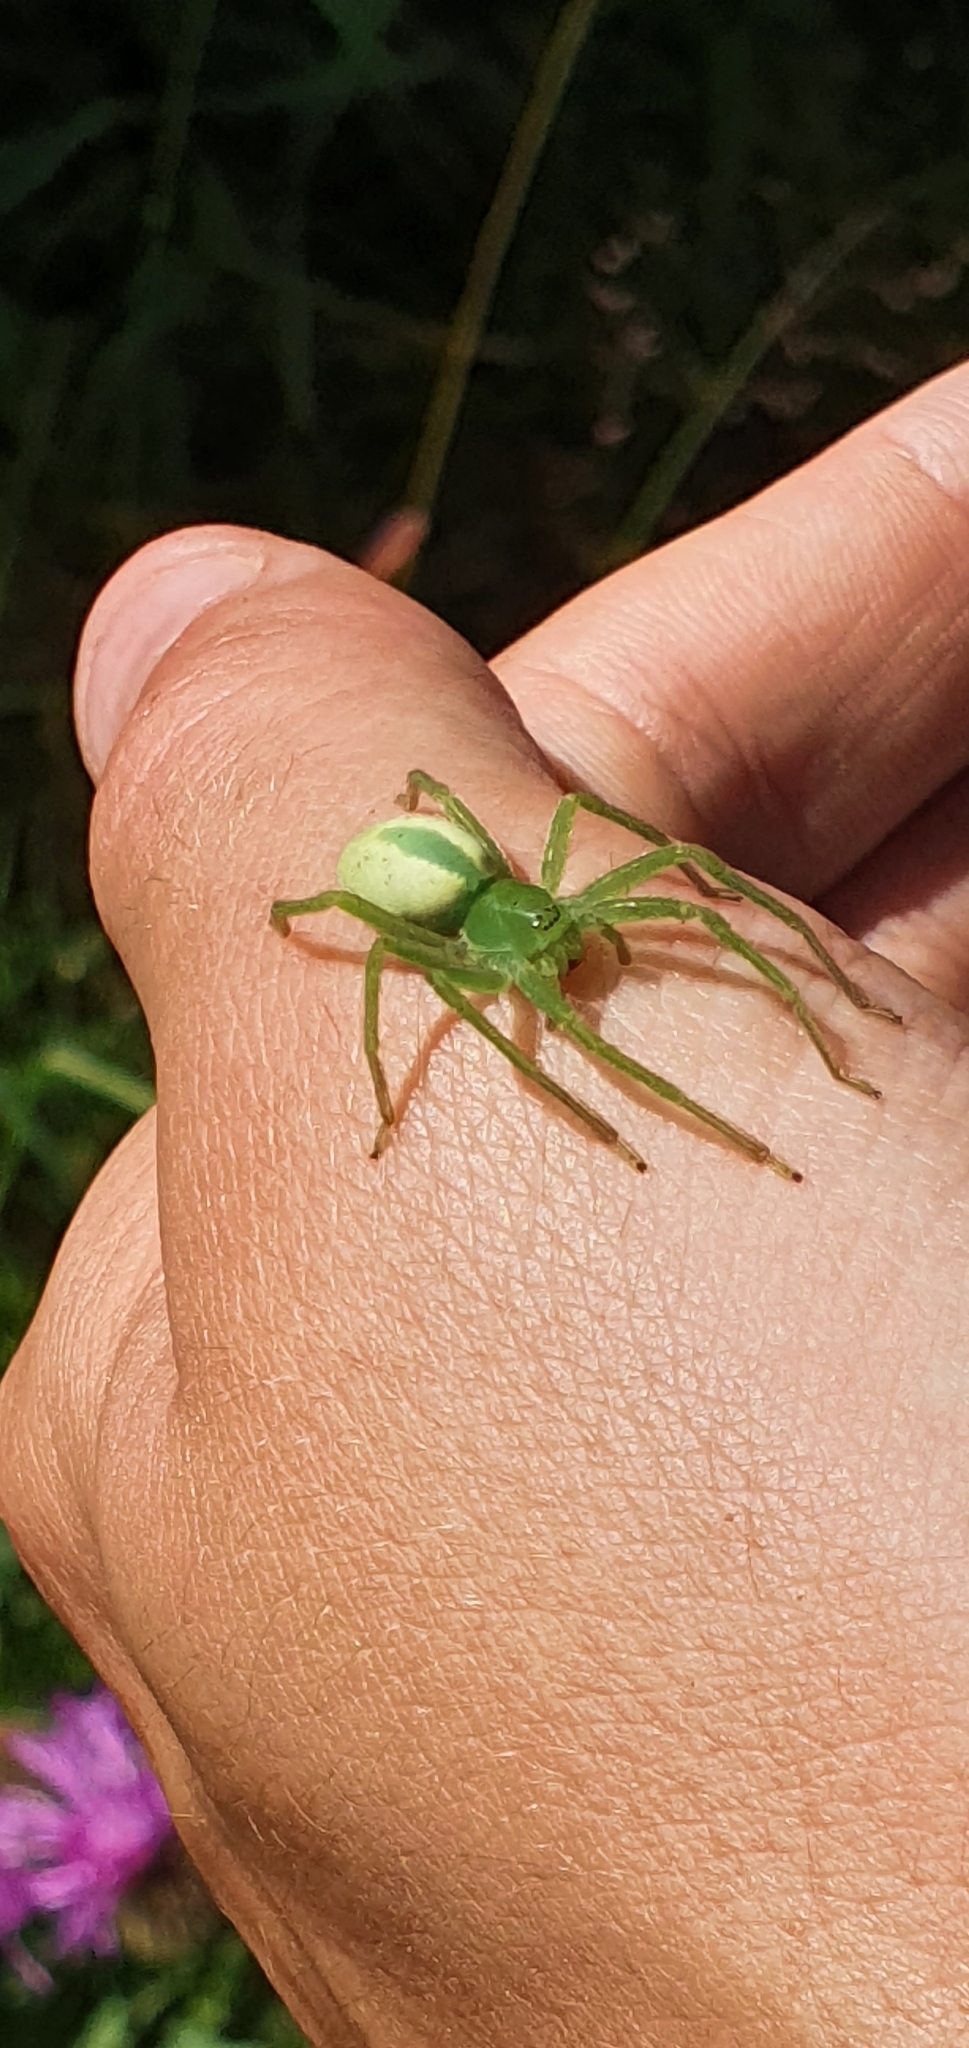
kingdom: Animalia
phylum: Arthropoda
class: Arachnida
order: Araneae
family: Sparassidae
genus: Micrommata
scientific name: Micrommata virescens
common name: Green spider
